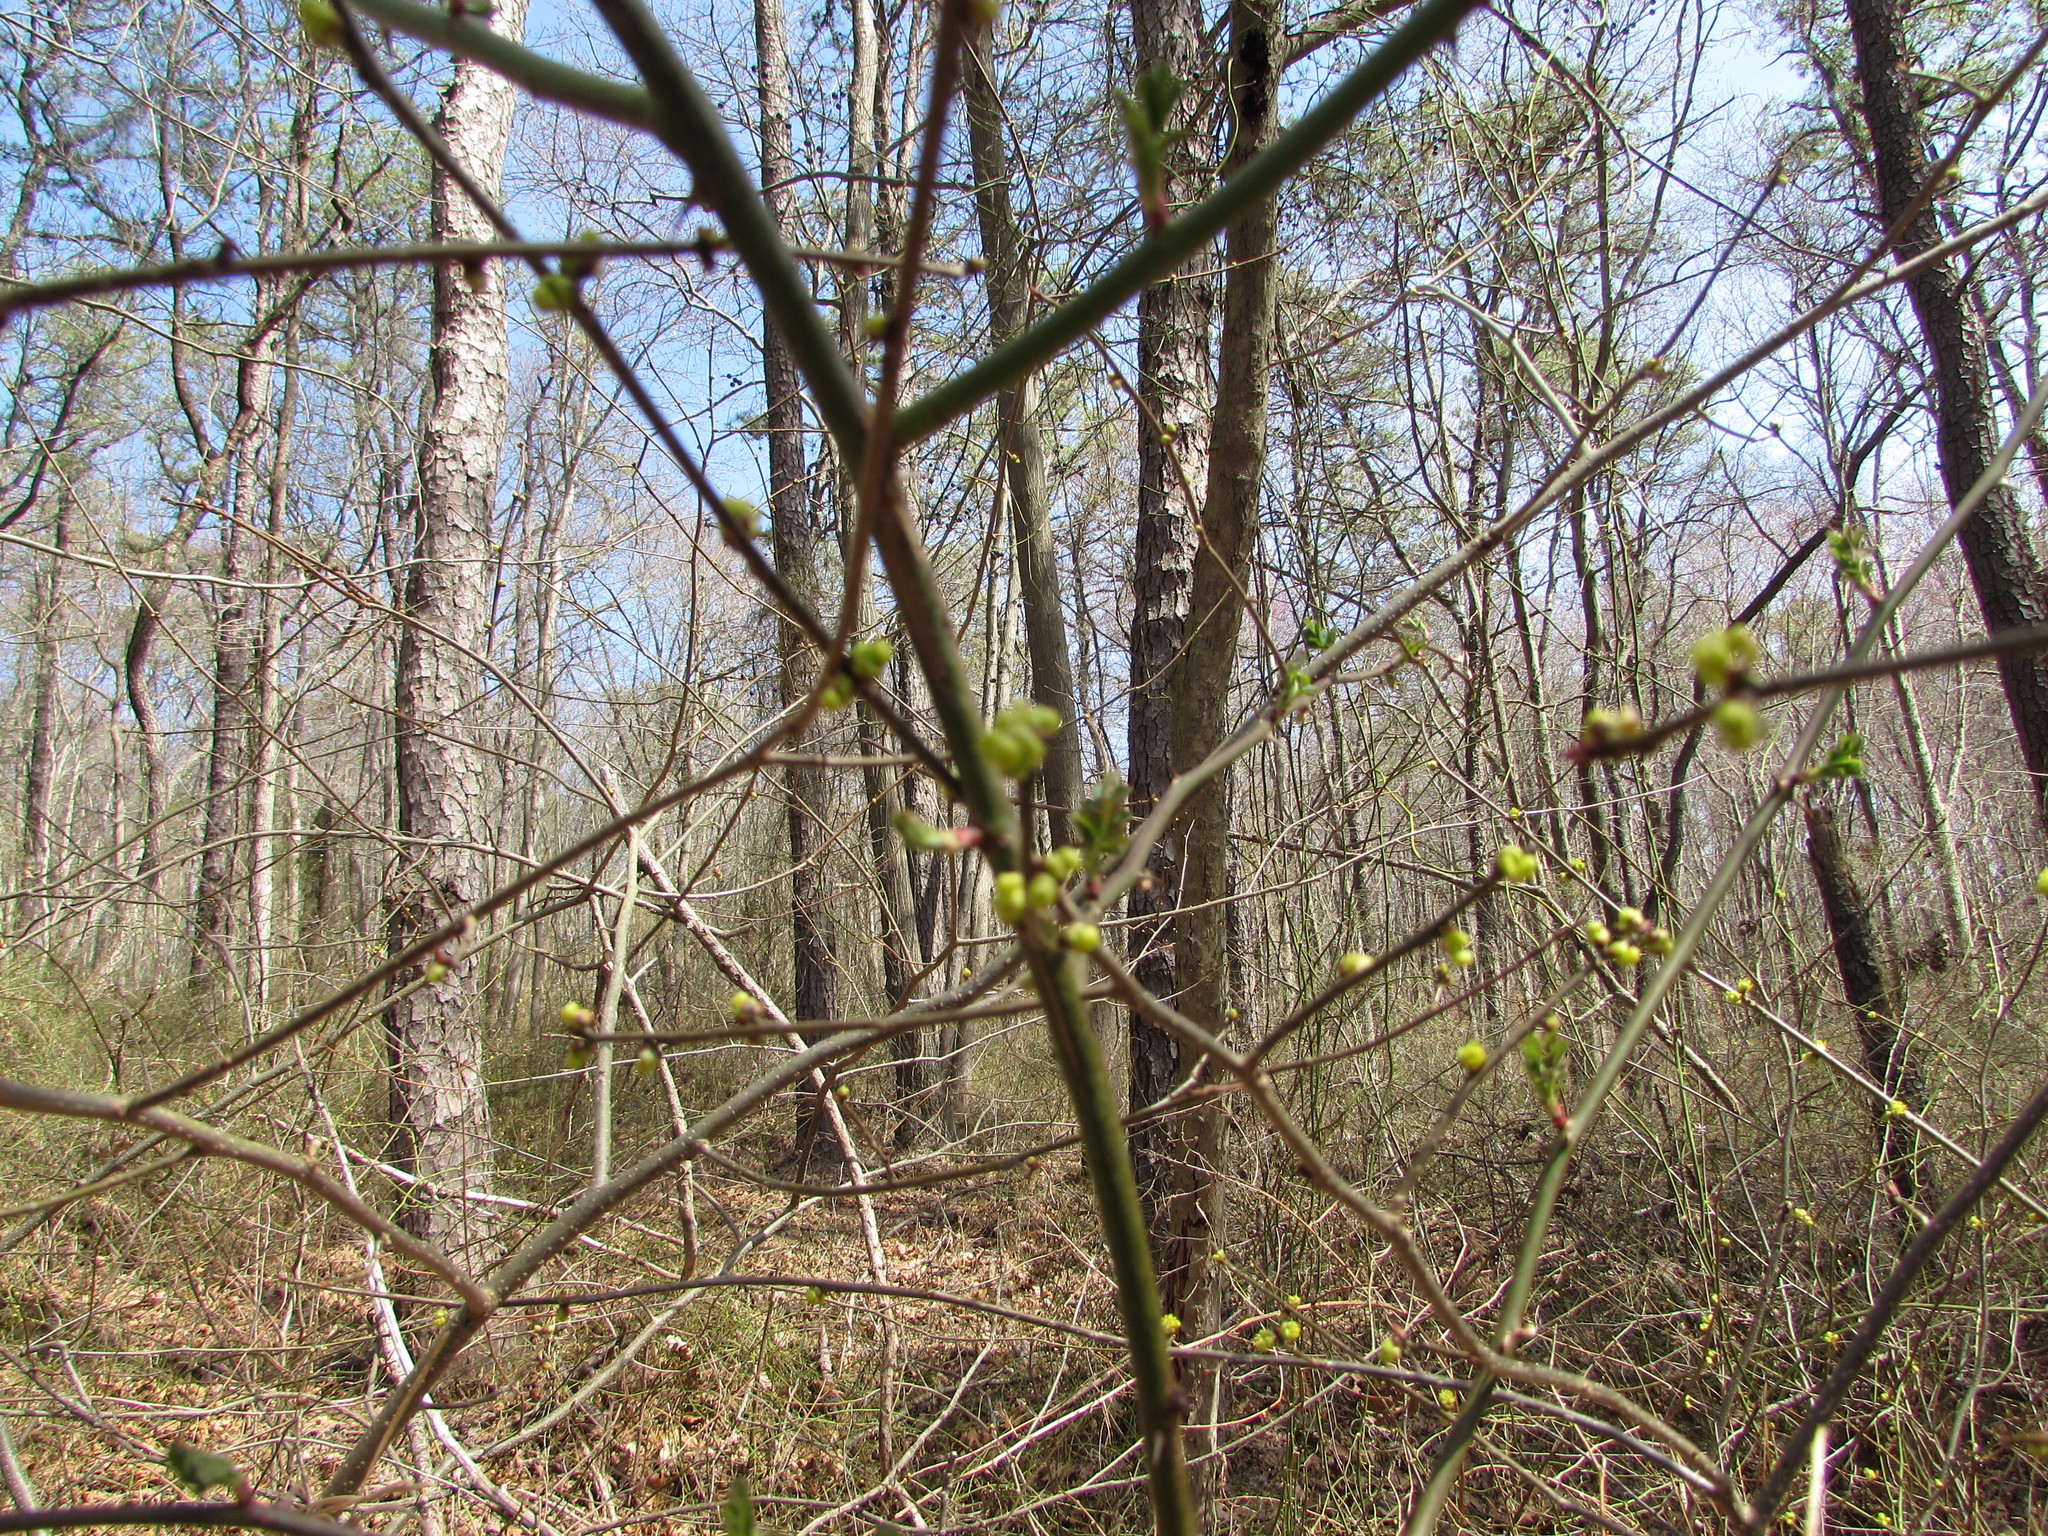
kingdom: Plantae
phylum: Tracheophyta
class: Magnoliopsida
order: Laurales
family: Lauraceae
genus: Lindera
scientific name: Lindera benzoin
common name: Spicebush
